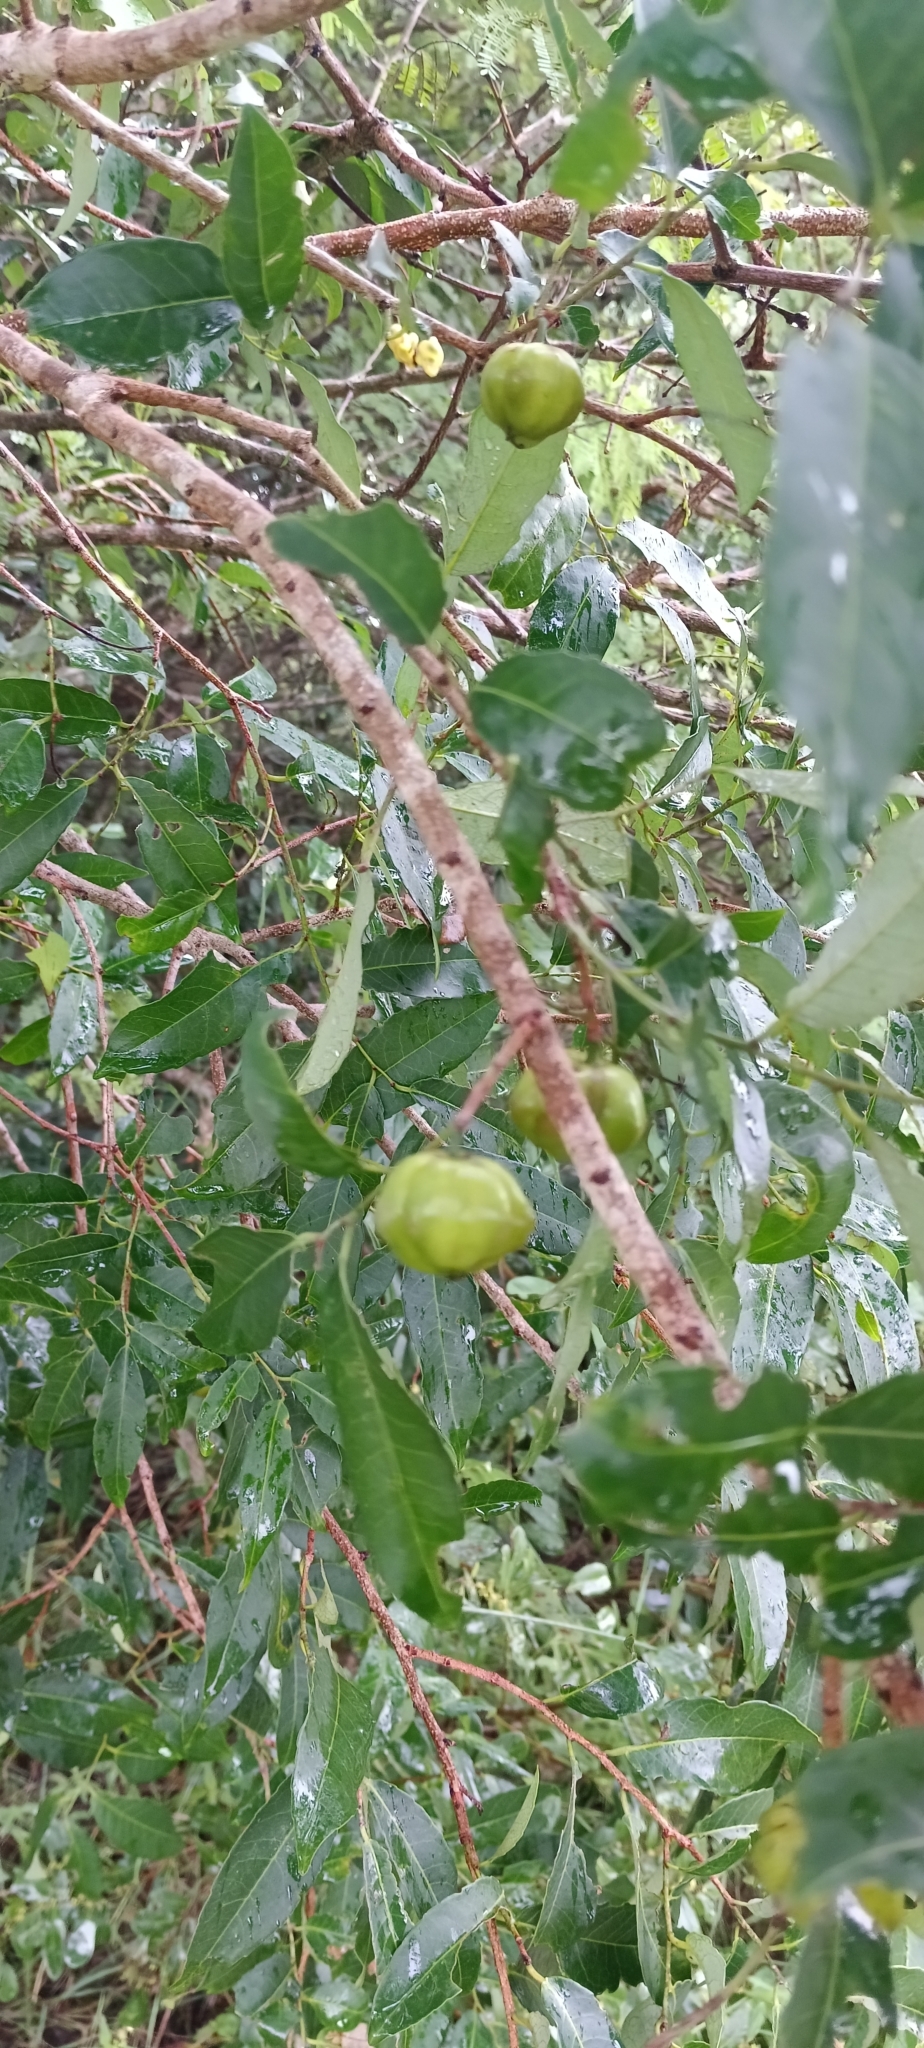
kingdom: Plantae
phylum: Tracheophyta
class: Magnoliopsida
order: Malpighiales
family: Euphorbiaceae
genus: Sclerocroton
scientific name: Sclerocroton integerrimus
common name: Duiker berry
